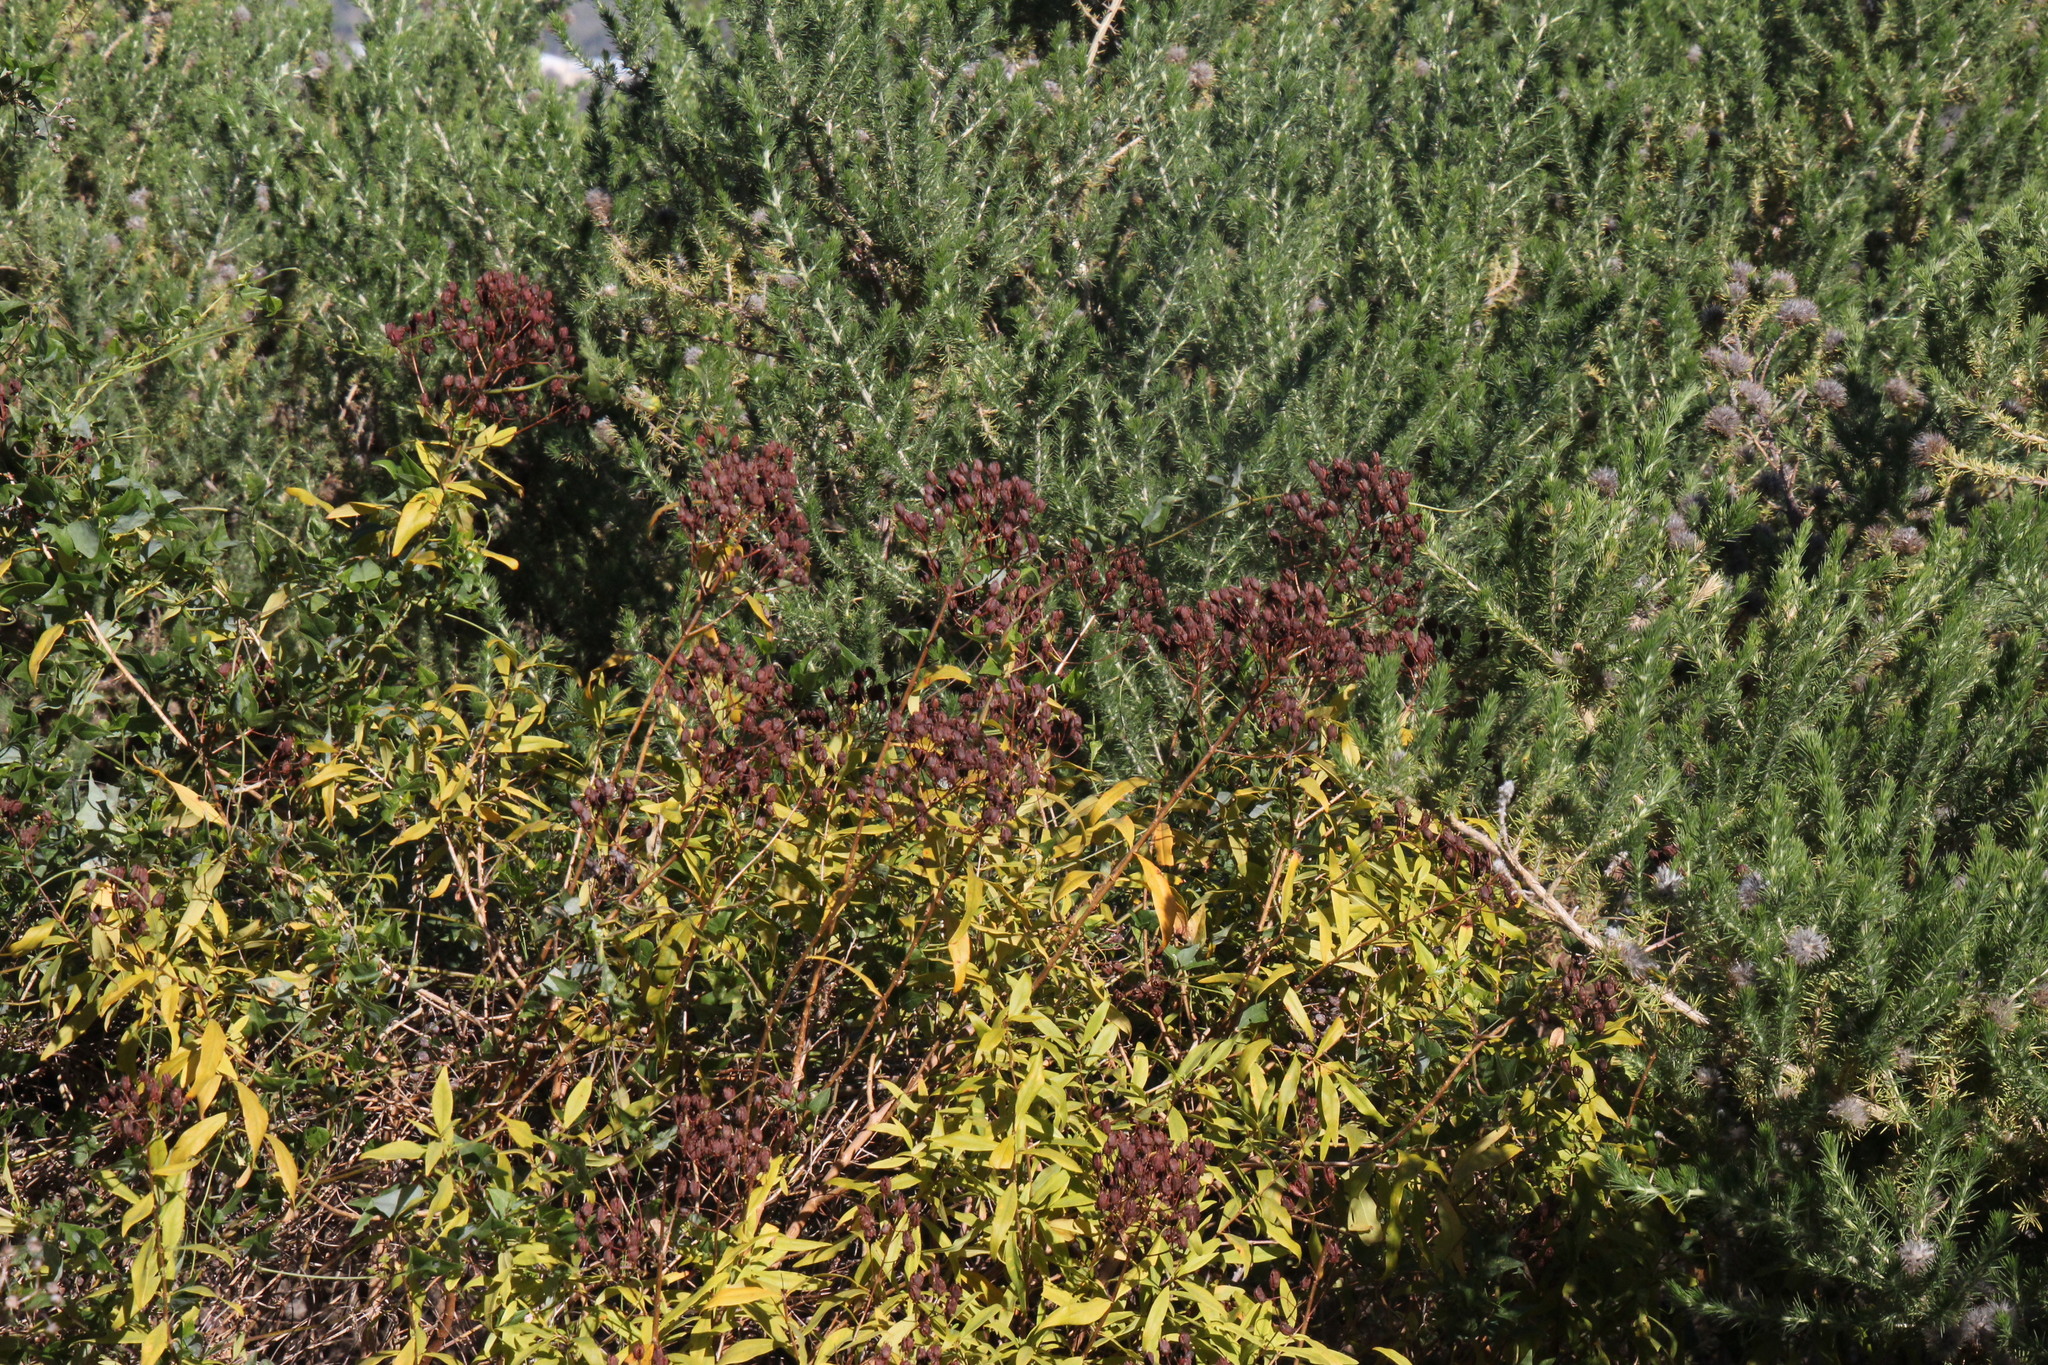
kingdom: Plantae
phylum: Tracheophyta
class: Magnoliopsida
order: Malpighiales
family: Hypericaceae
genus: Hypericum
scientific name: Hypericum canariense
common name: Canary island st. johnswort
